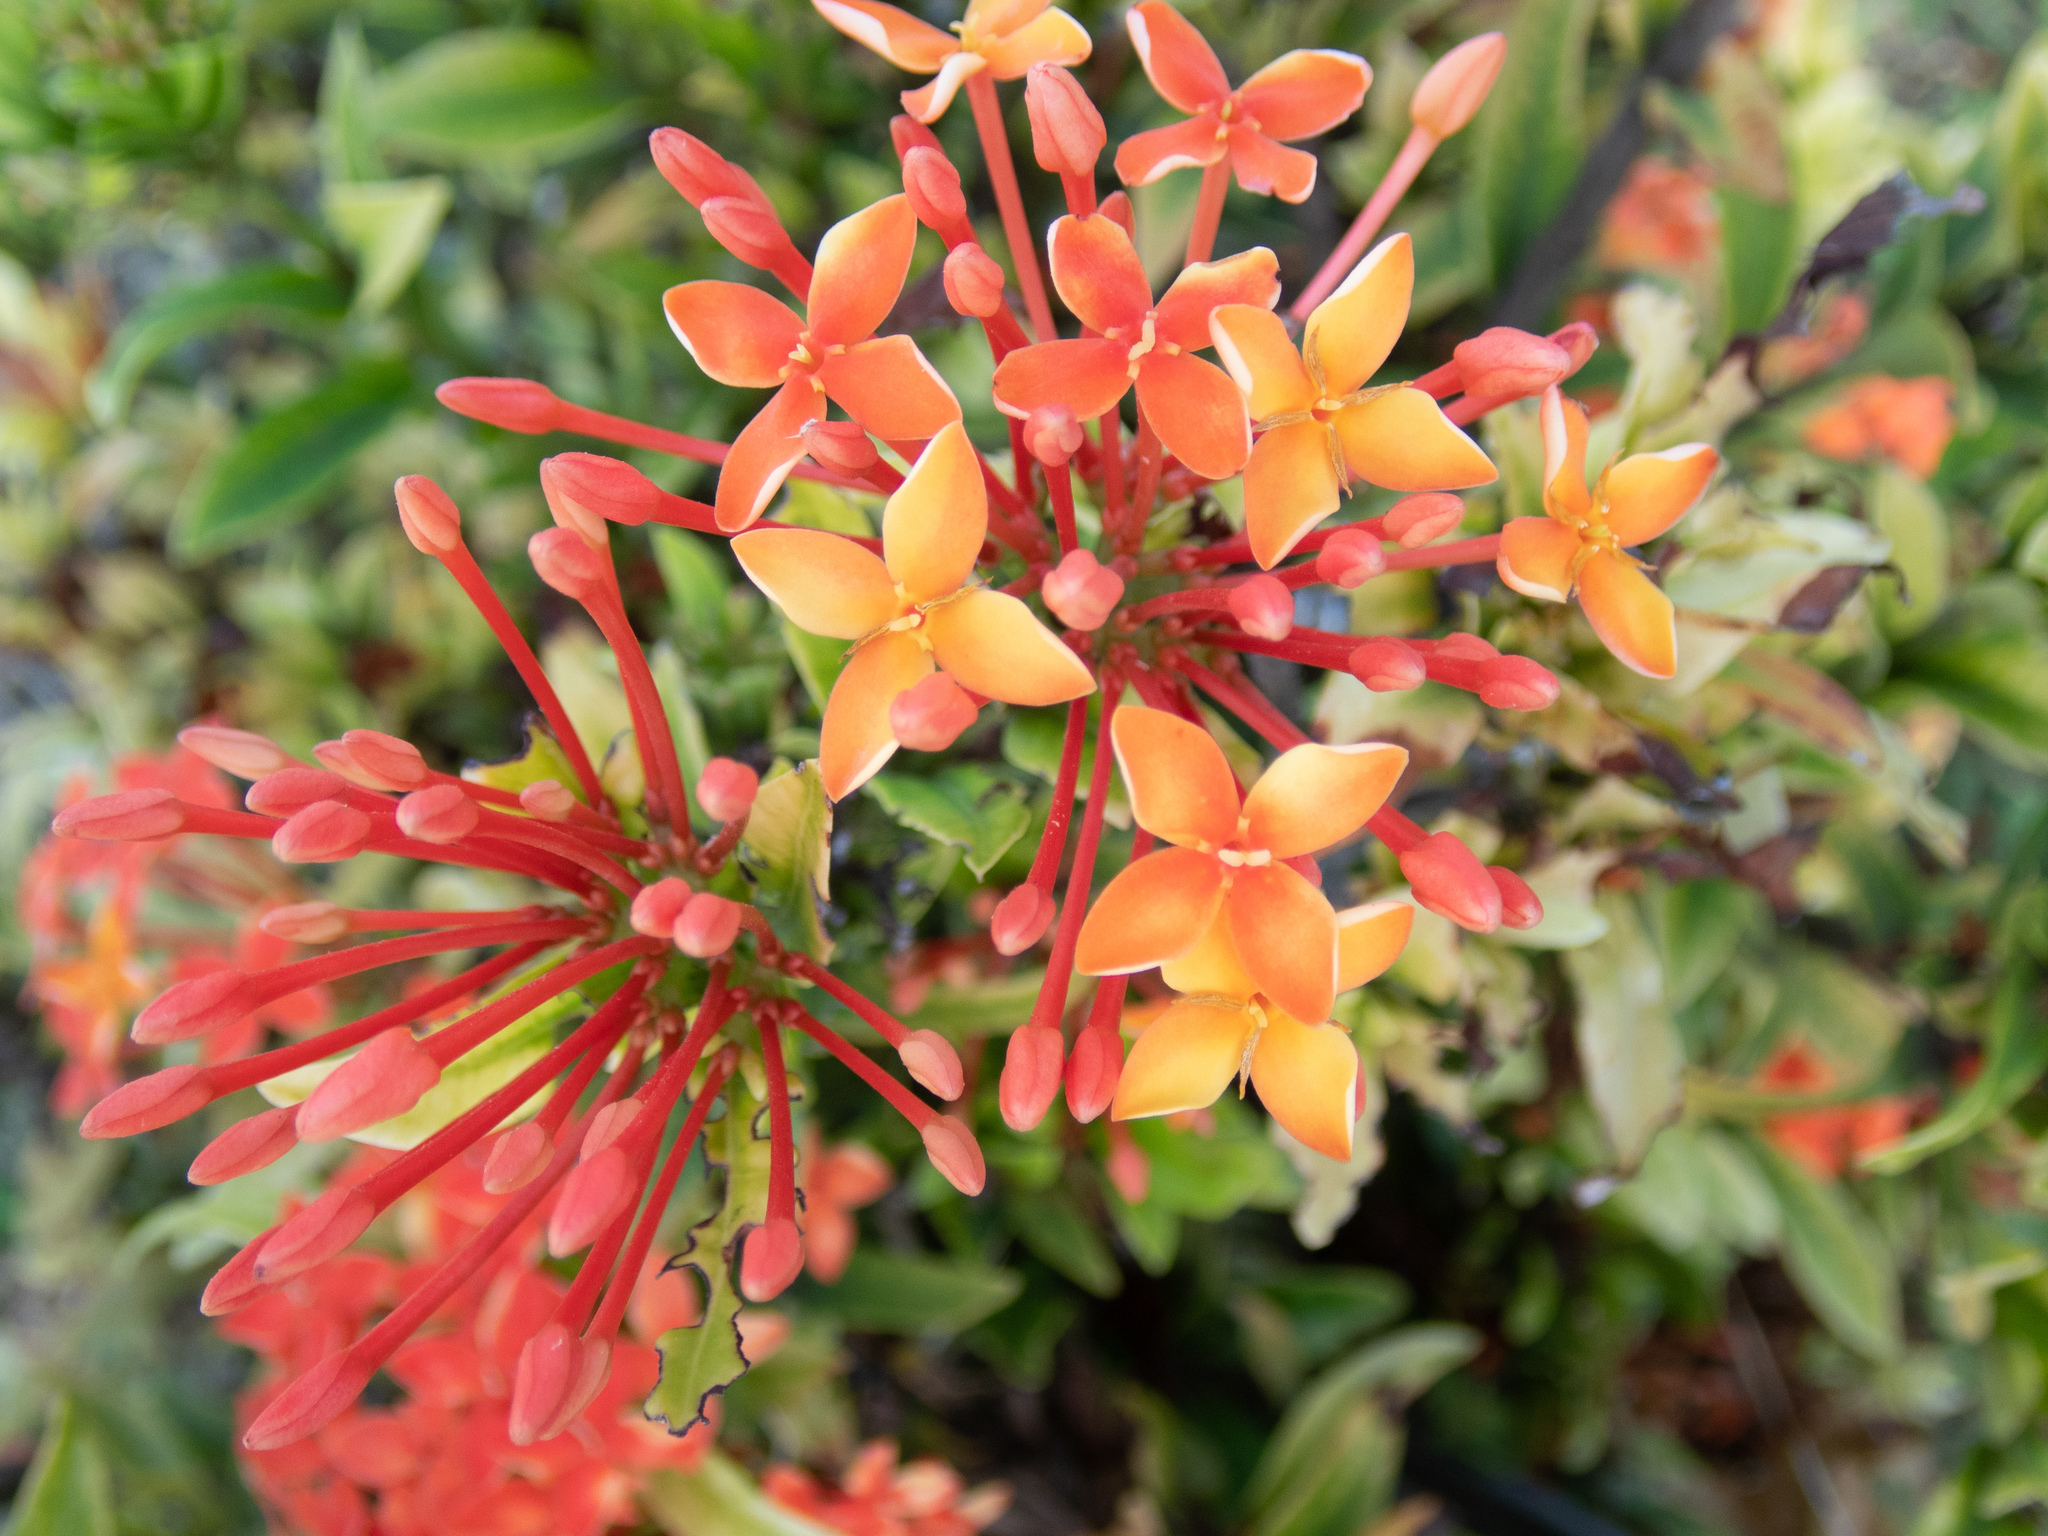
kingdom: Plantae
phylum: Tracheophyta
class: Magnoliopsida
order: Gentianales
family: Rubiaceae
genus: Ixora
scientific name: Ixora coccinea
